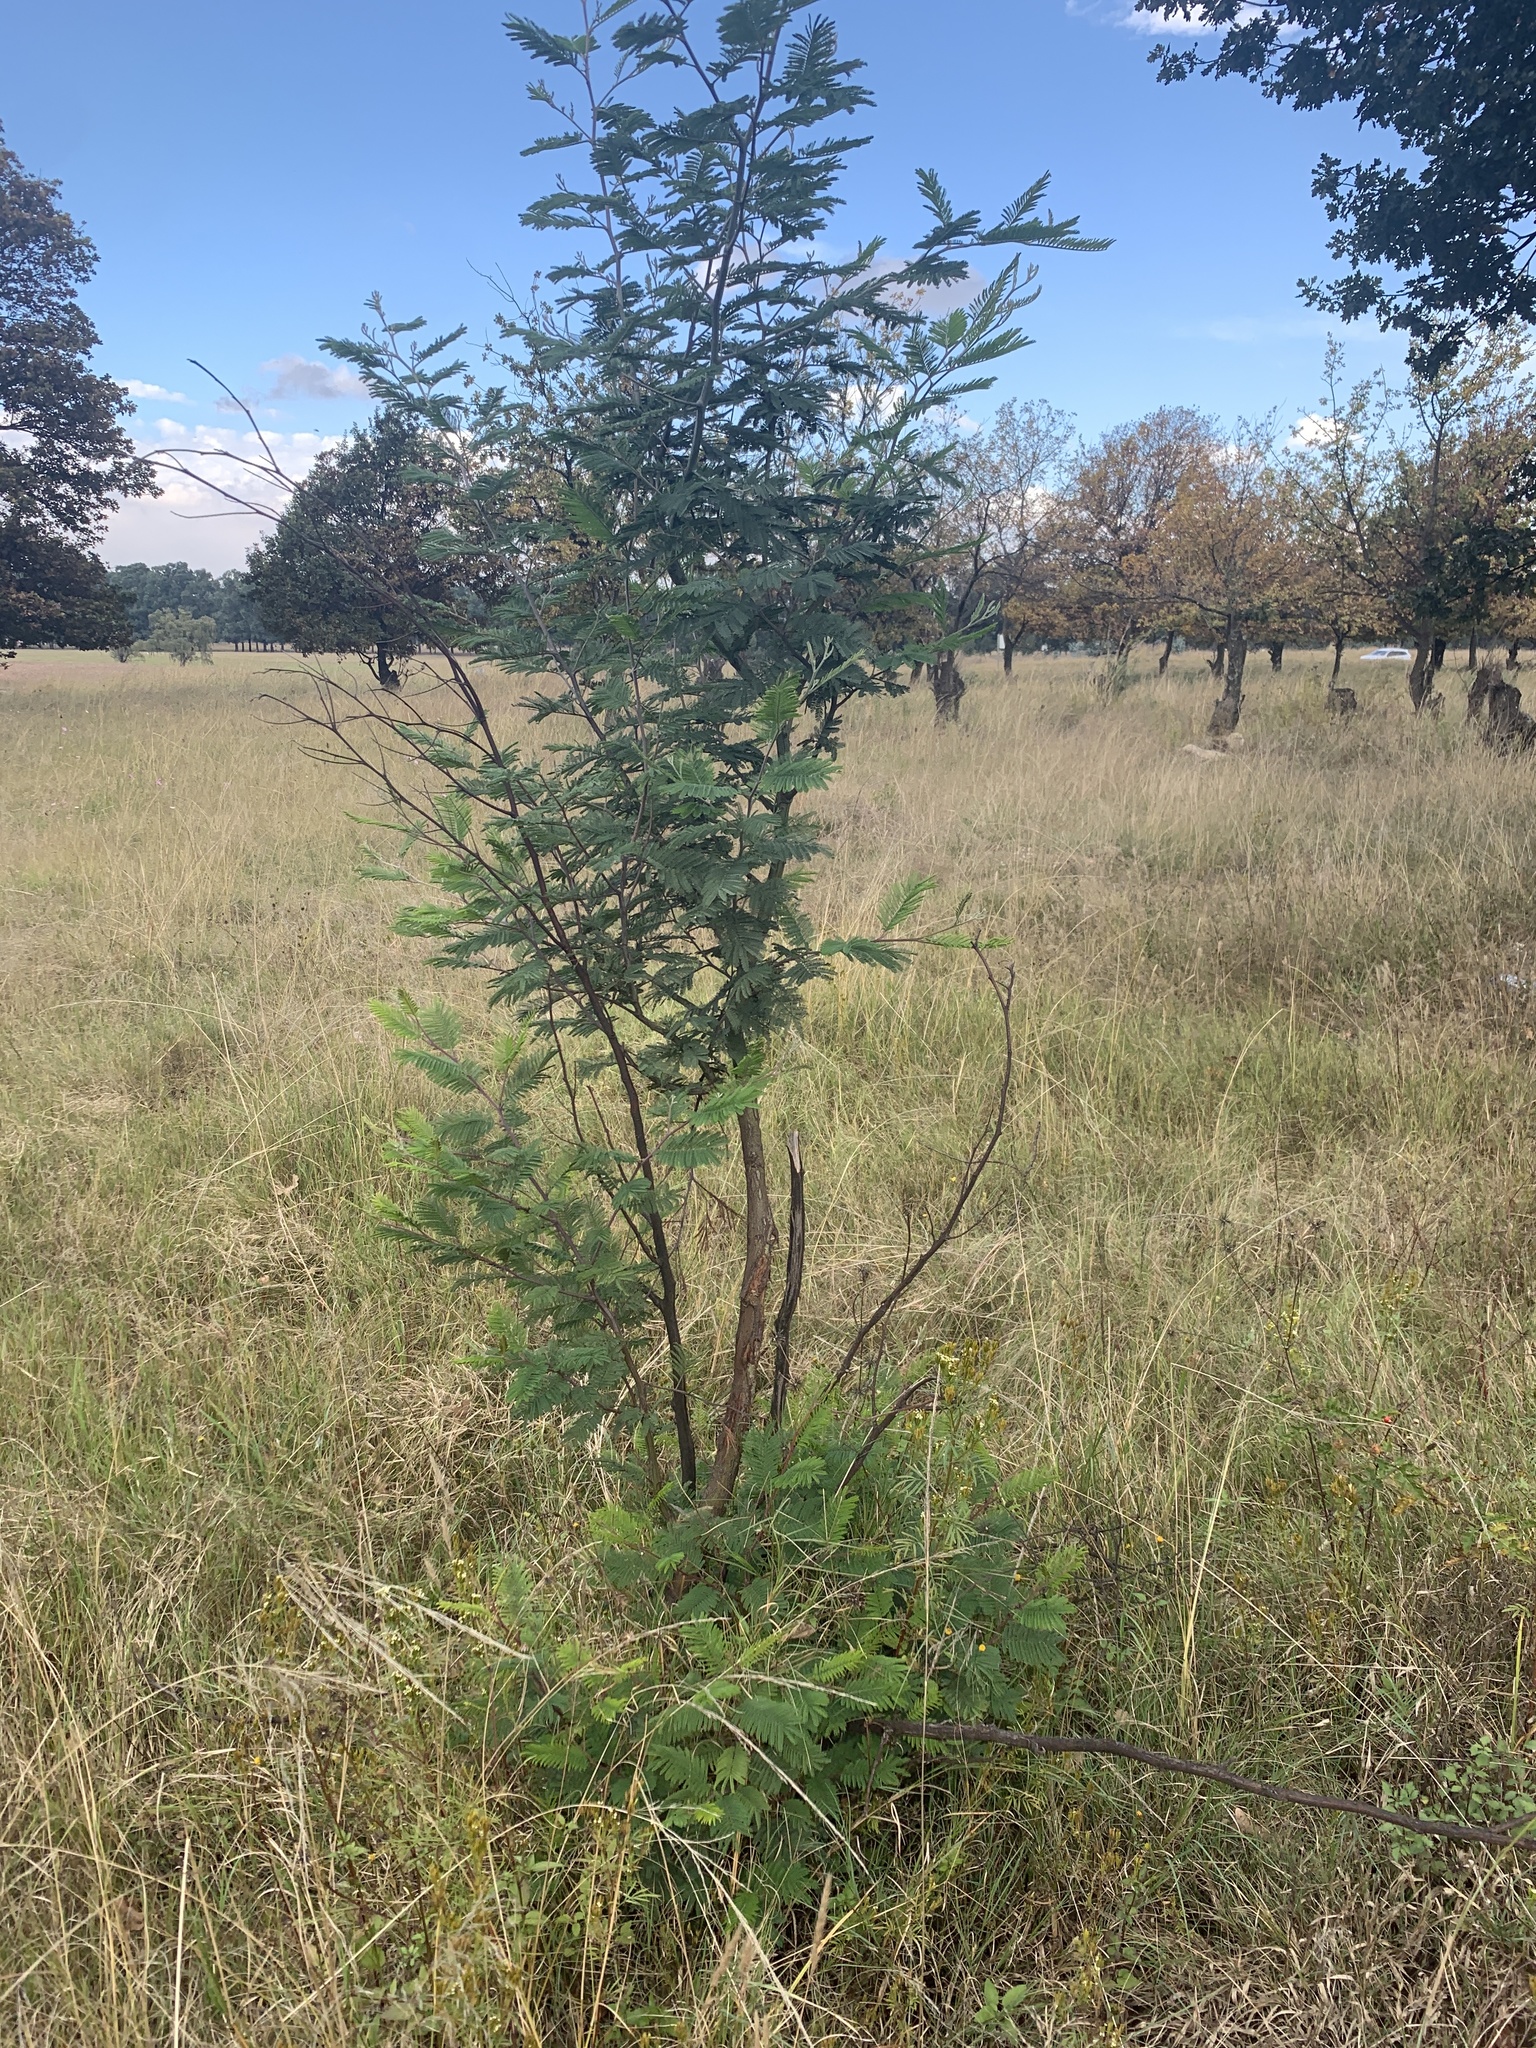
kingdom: Plantae
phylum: Tracheophyta
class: Magnoliopsida
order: Fabales
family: Fabaceae
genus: Acacia
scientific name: Acacia mearnsii
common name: Black wattle
